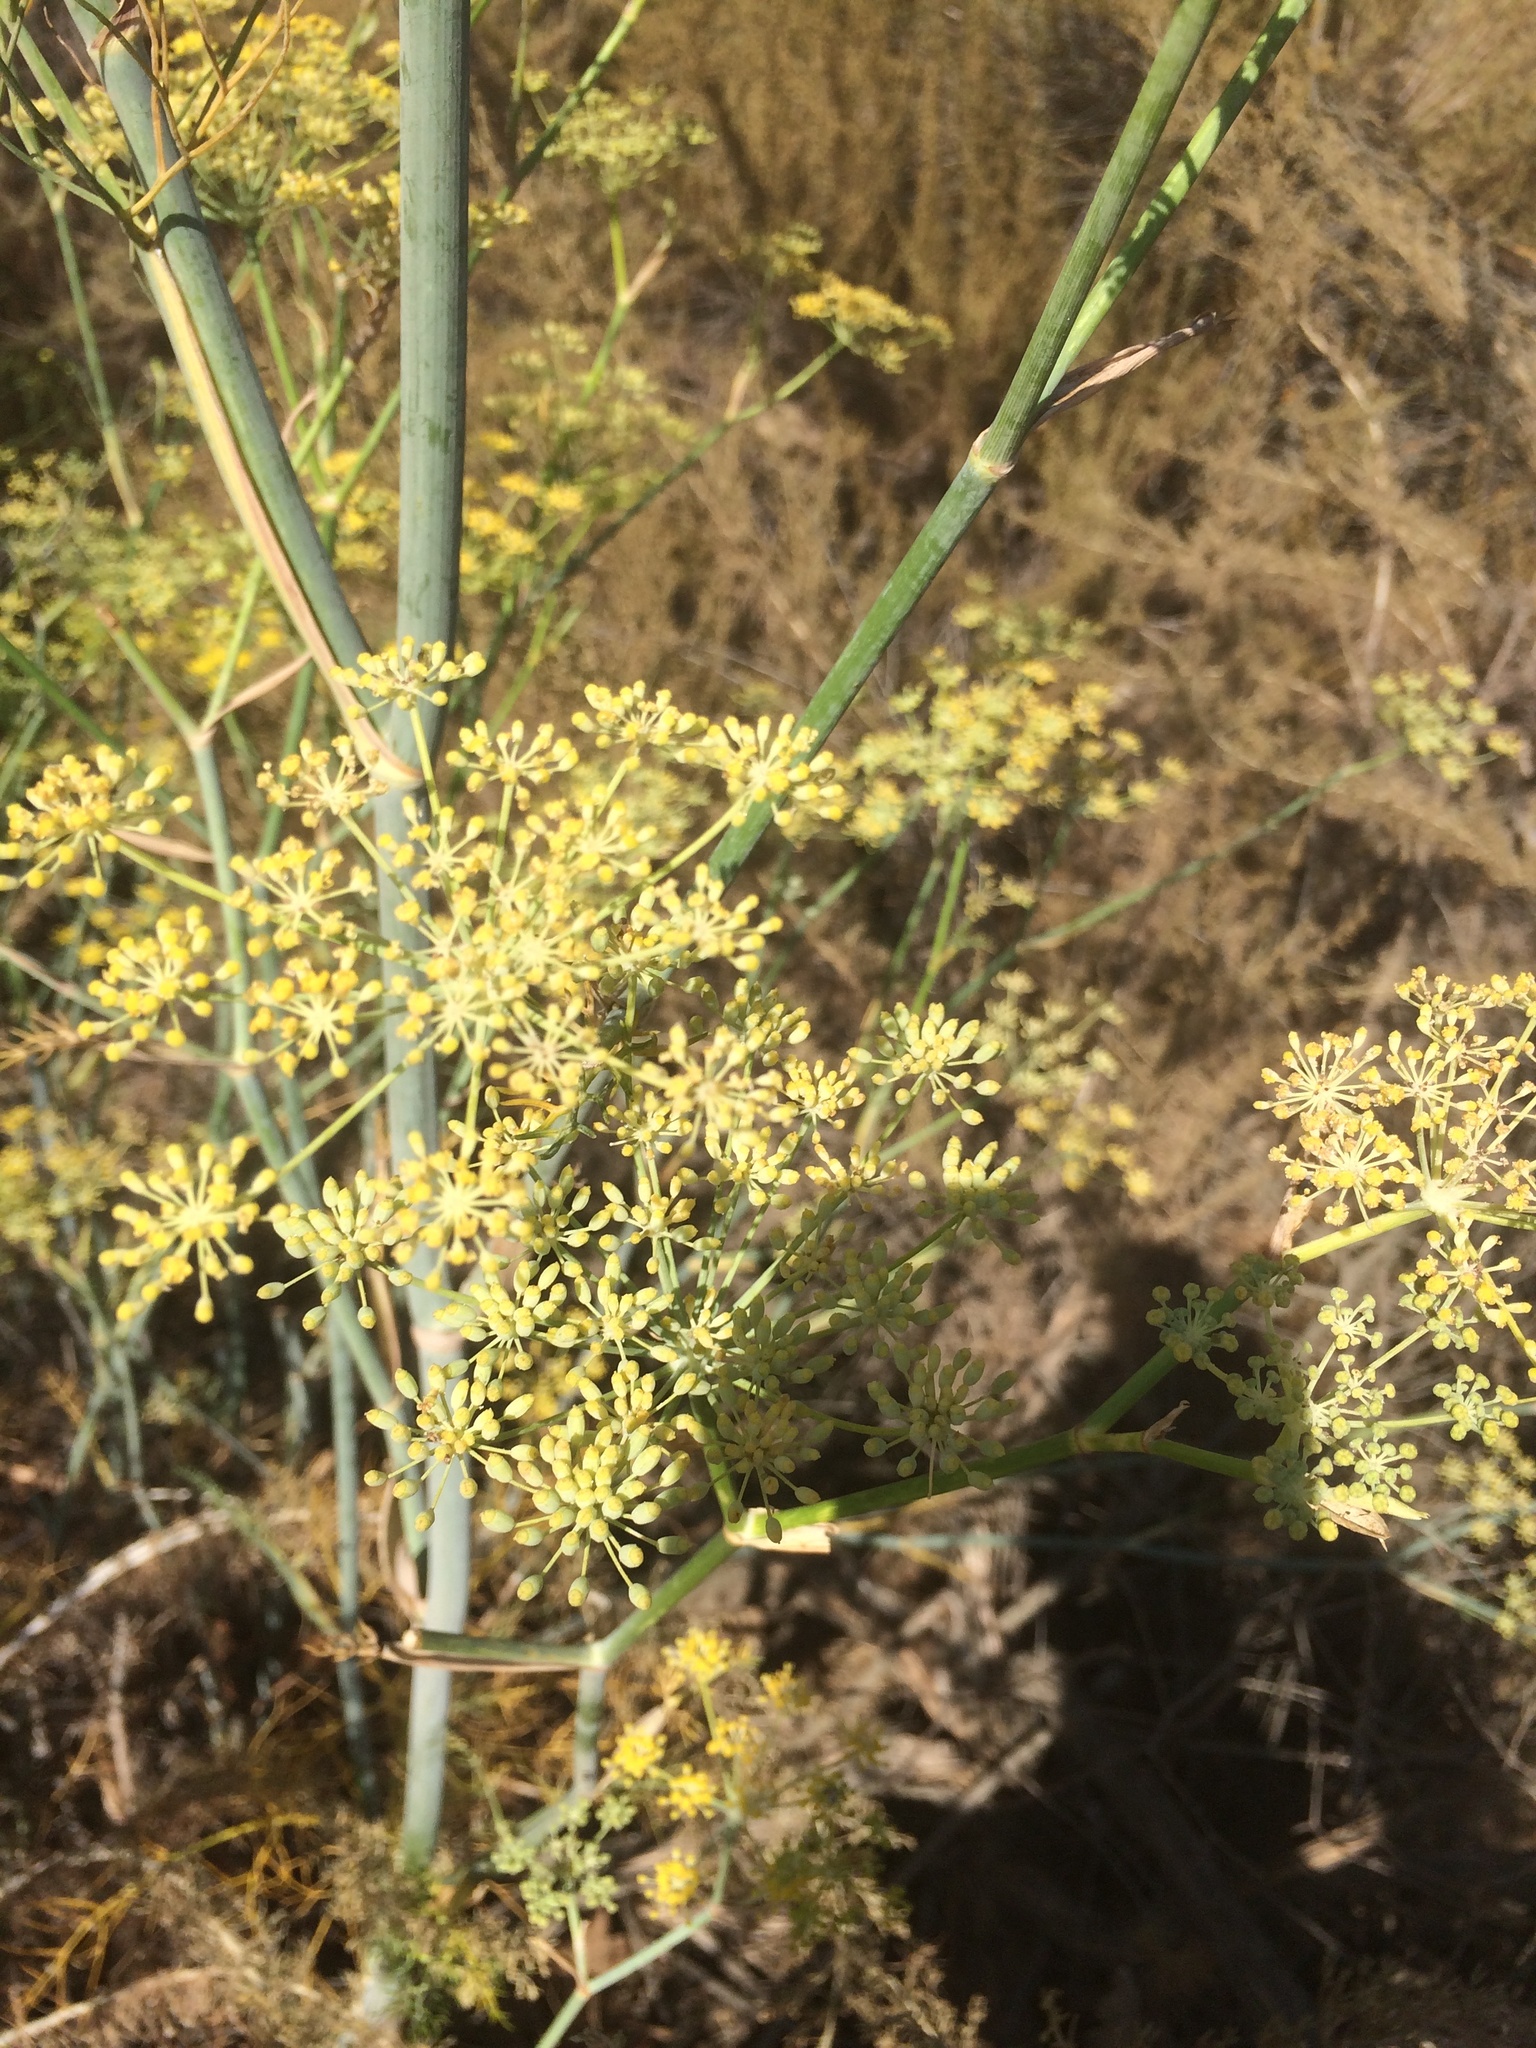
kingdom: Plantae
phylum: Tracheophyta
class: Magnoliopsida
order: Apiales
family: Apiaceae
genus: Foeniculum
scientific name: Foeniculum vulgare
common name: Fennel
